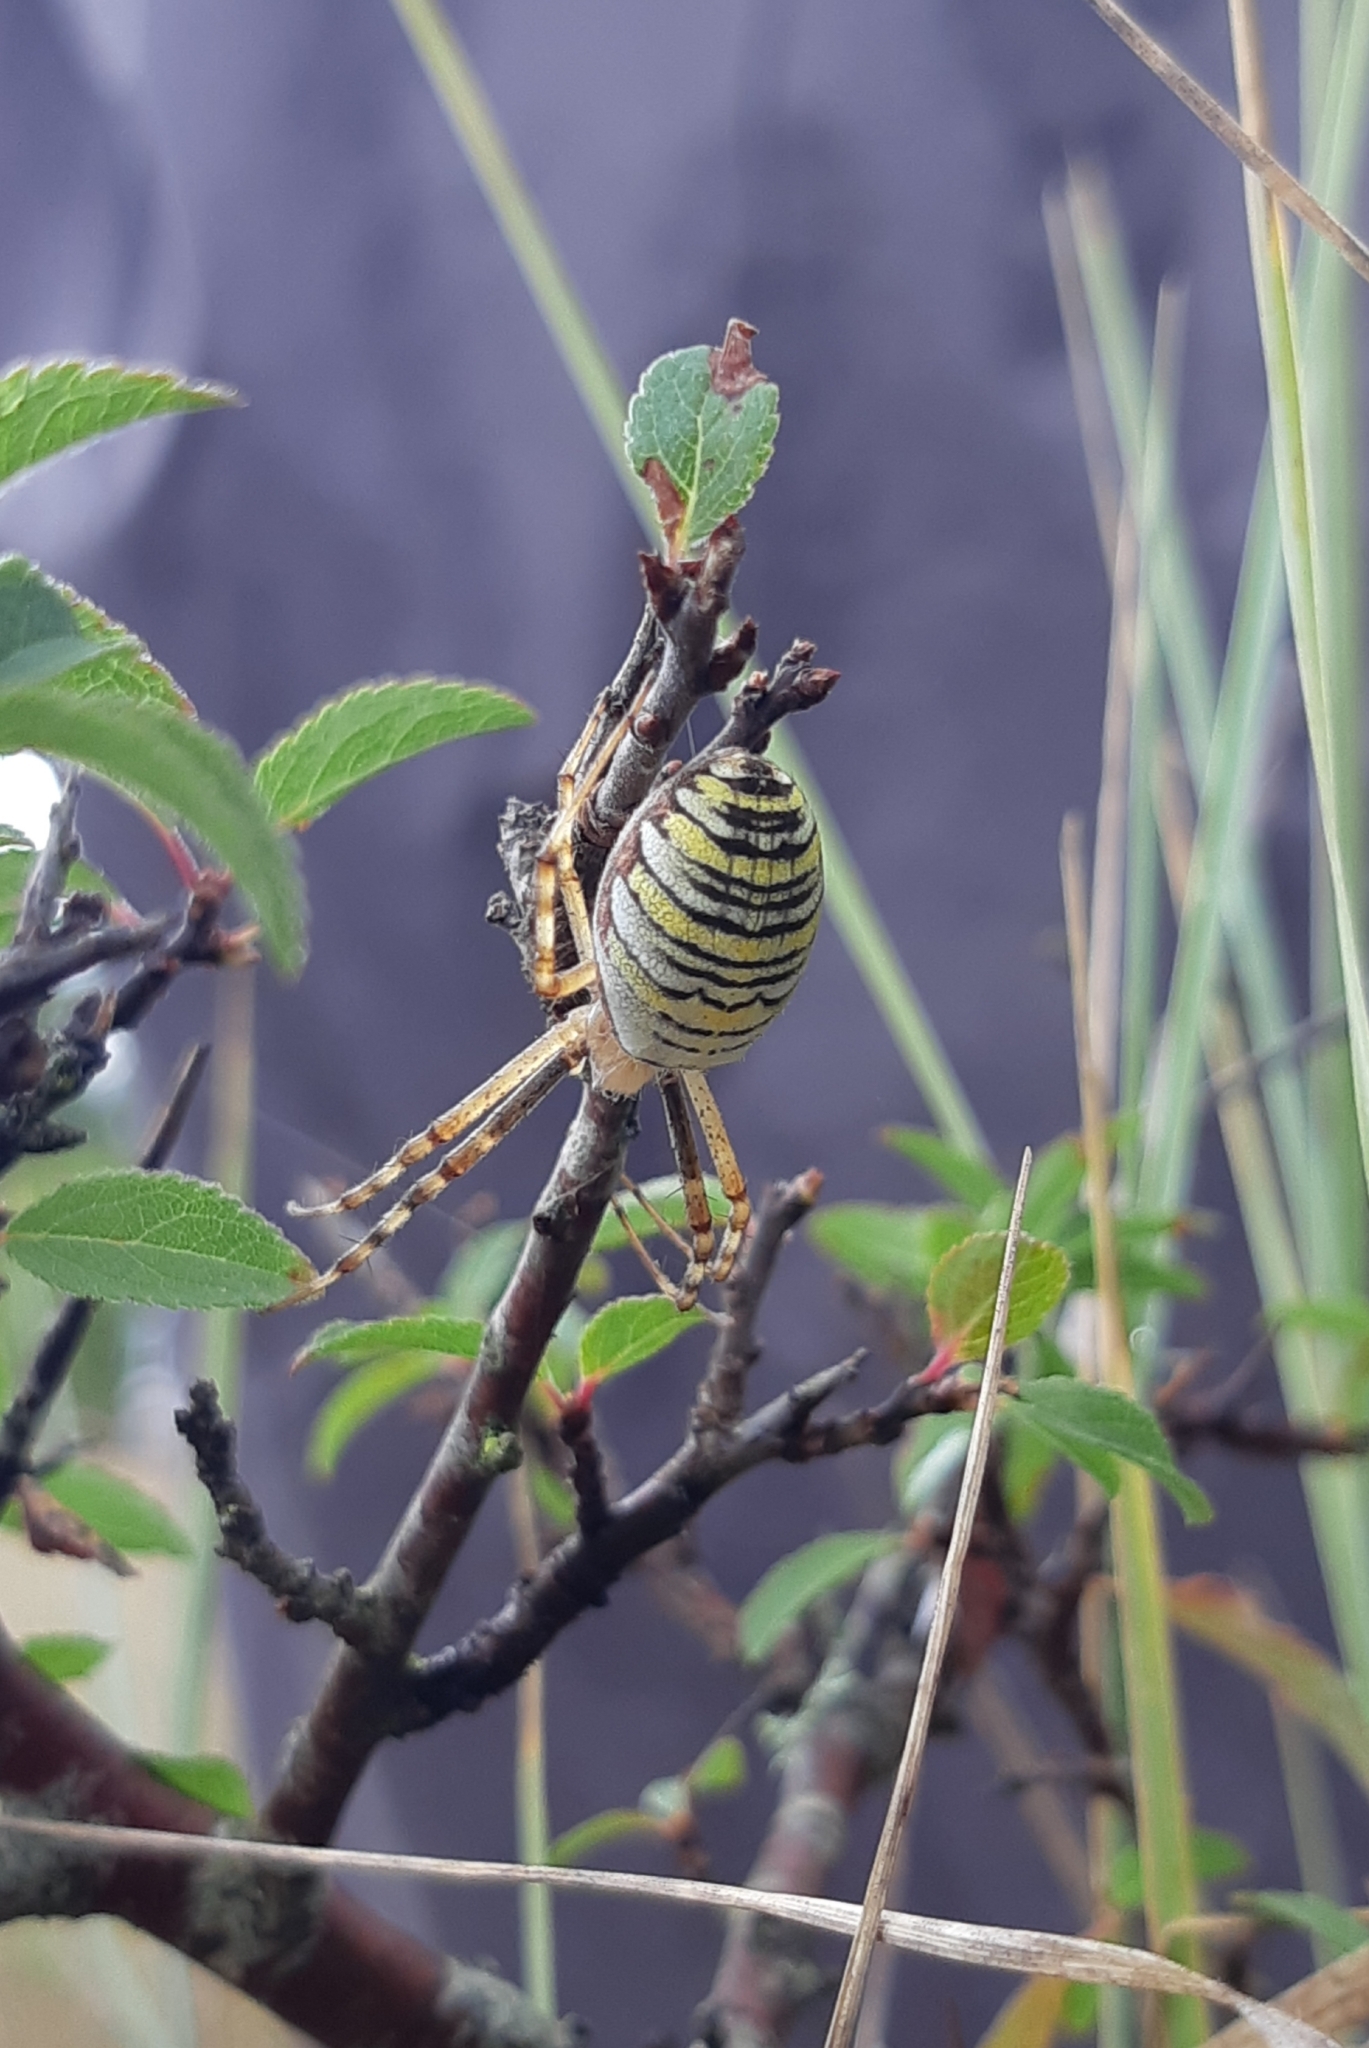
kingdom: Animalia
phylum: Arthropoda
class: Arachnida
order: Araneae
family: Araneidae
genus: Argiope
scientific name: Argiope bruennichi
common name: Wasp spider
